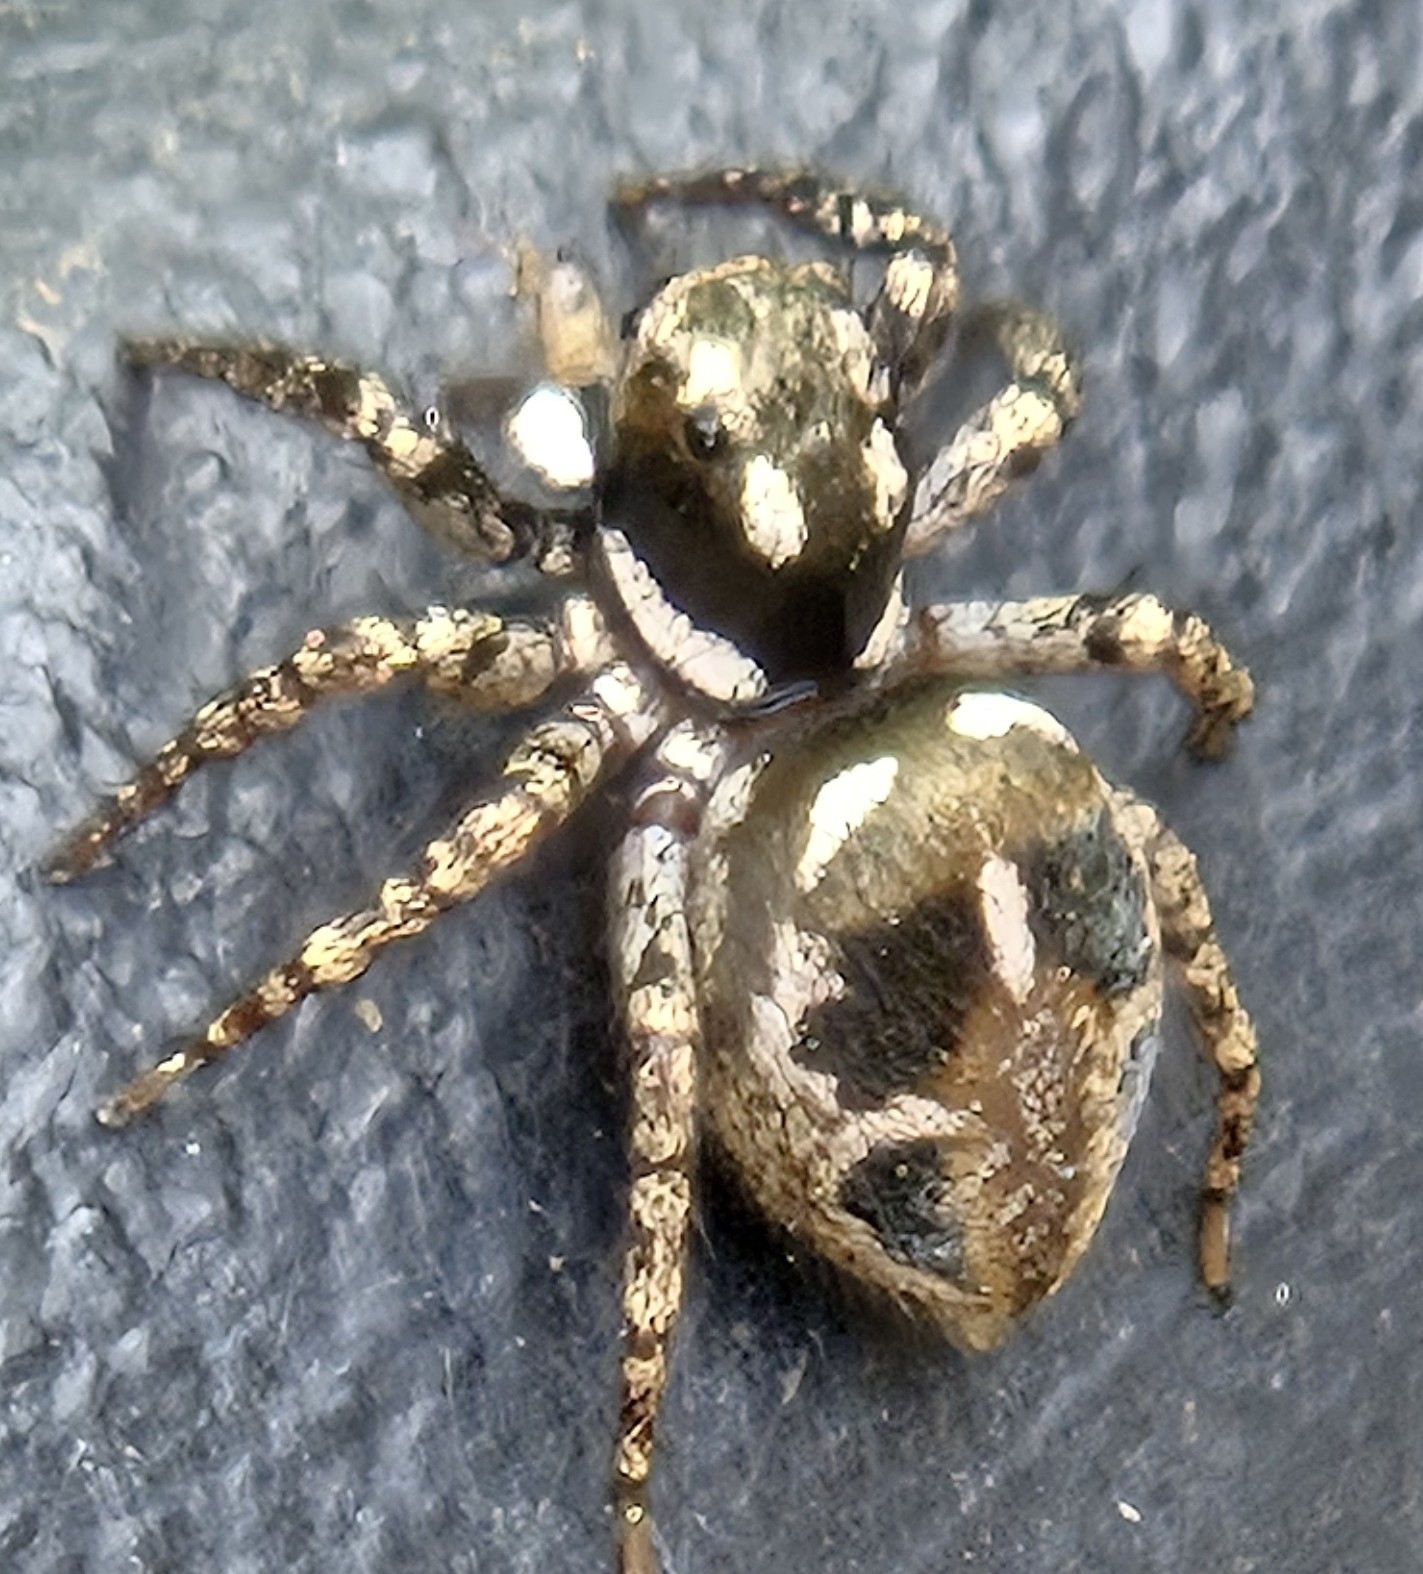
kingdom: Animalia
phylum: Arthropoda
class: Arachnida
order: Araneae
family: Salticidae
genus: Anasaitis
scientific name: Anasaitis canosa
